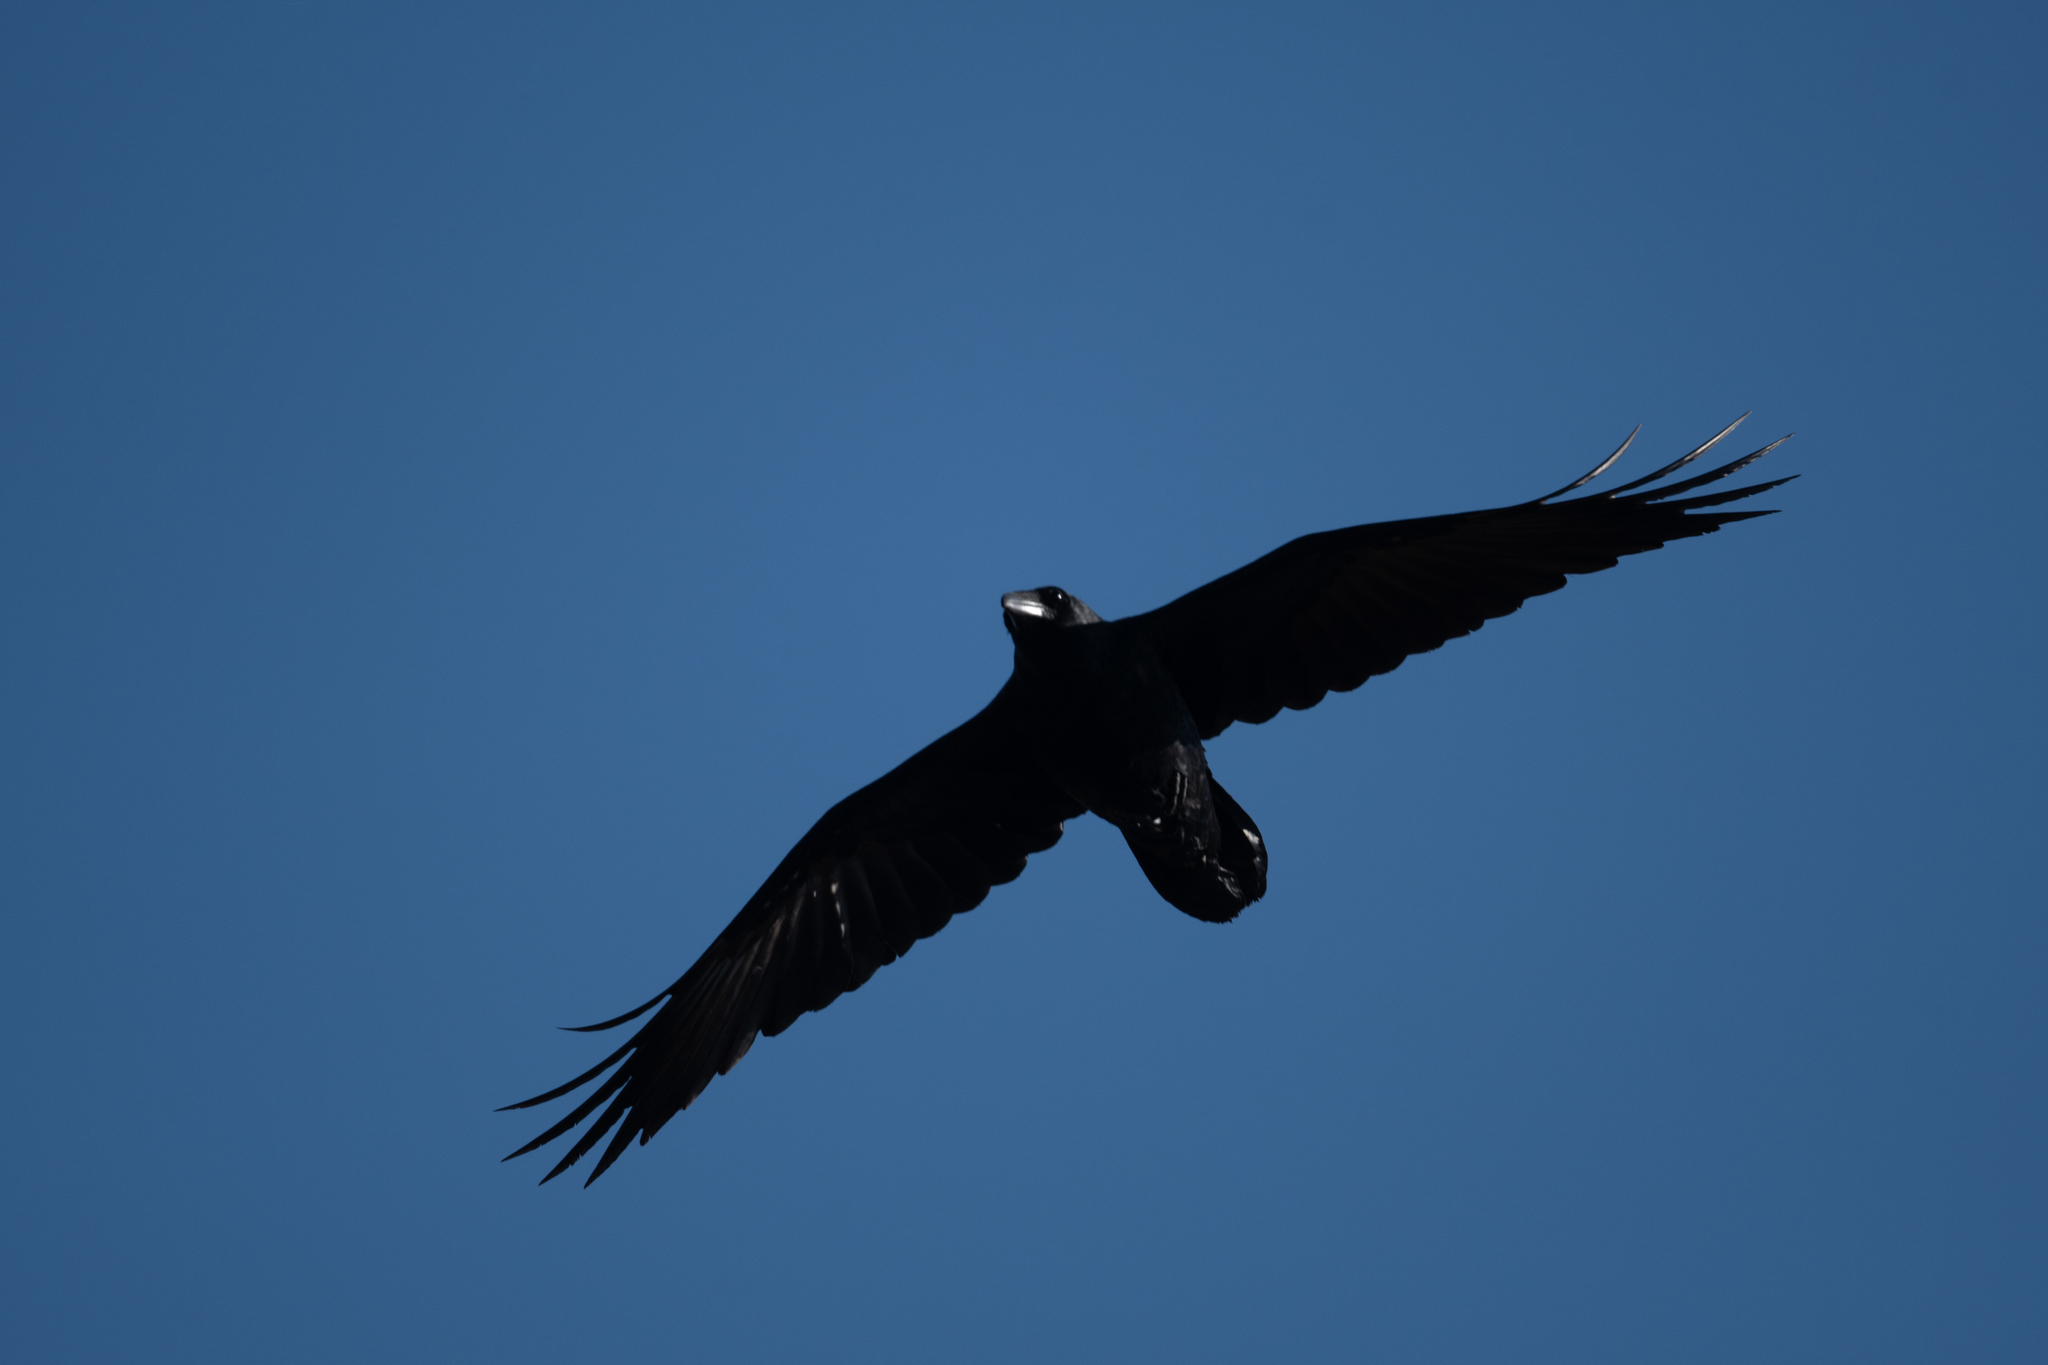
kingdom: Animalia
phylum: Chordata
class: Aves
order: Passeriformes
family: Corvidae
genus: Corvus
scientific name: Corvus corax
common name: Common raven
